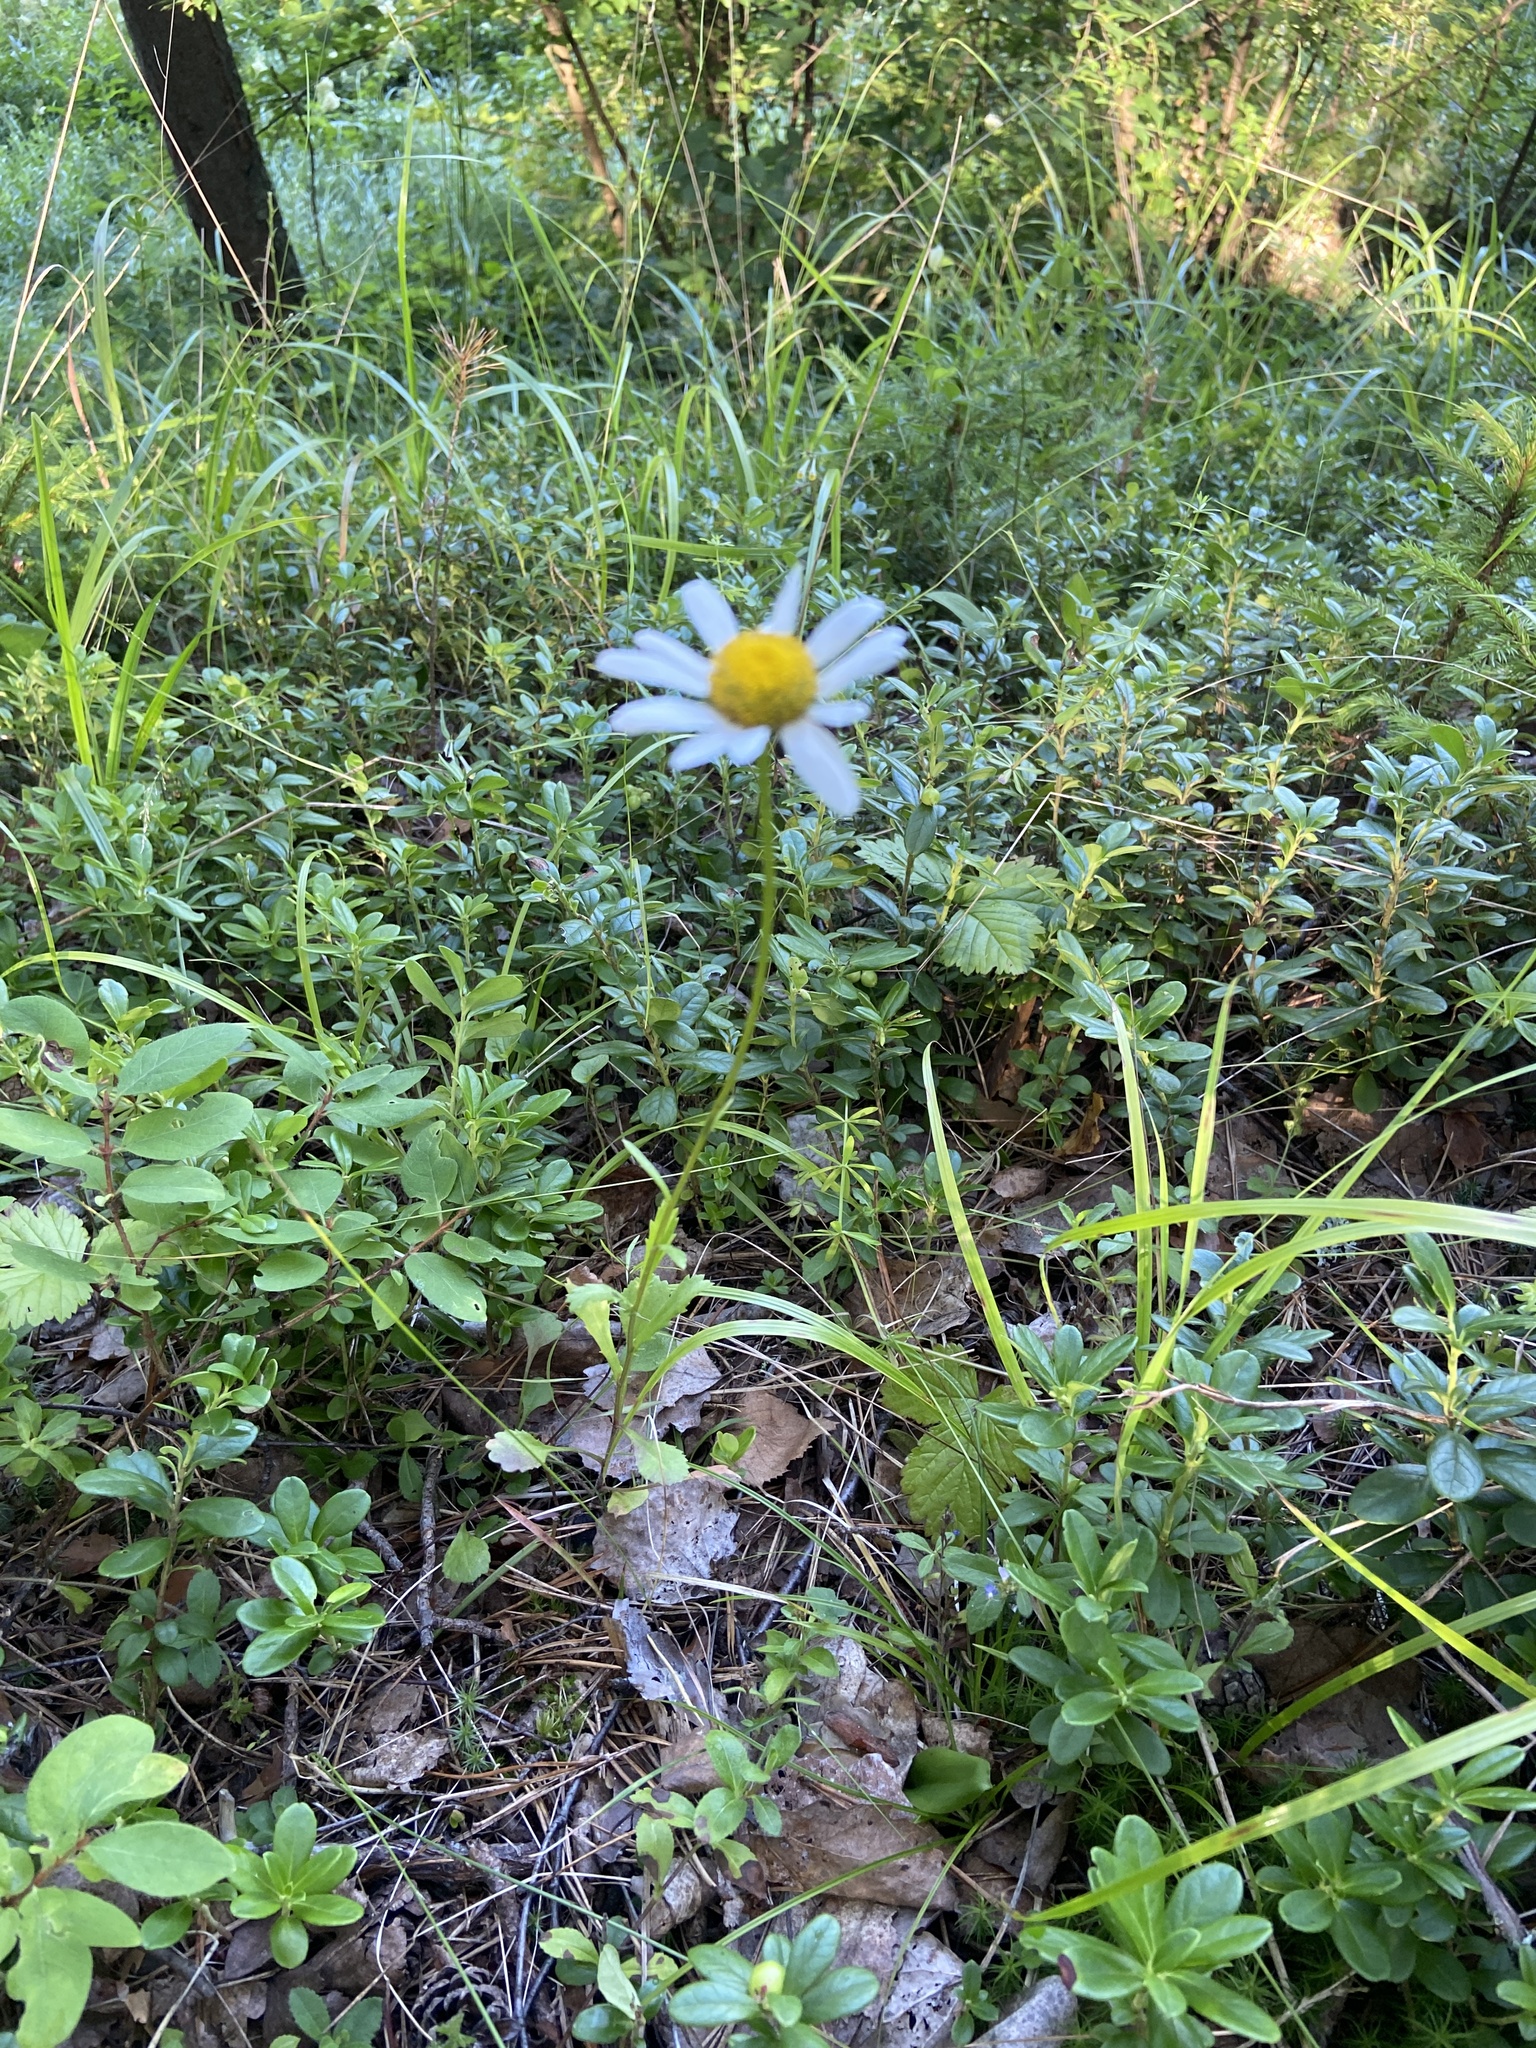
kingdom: Plantae
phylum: Tracheophyta
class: Magnoliopsida
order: Asterales
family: Asteraceae
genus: Leucanthemum
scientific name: Leucanthemum vulgare
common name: Oxeye daisy
